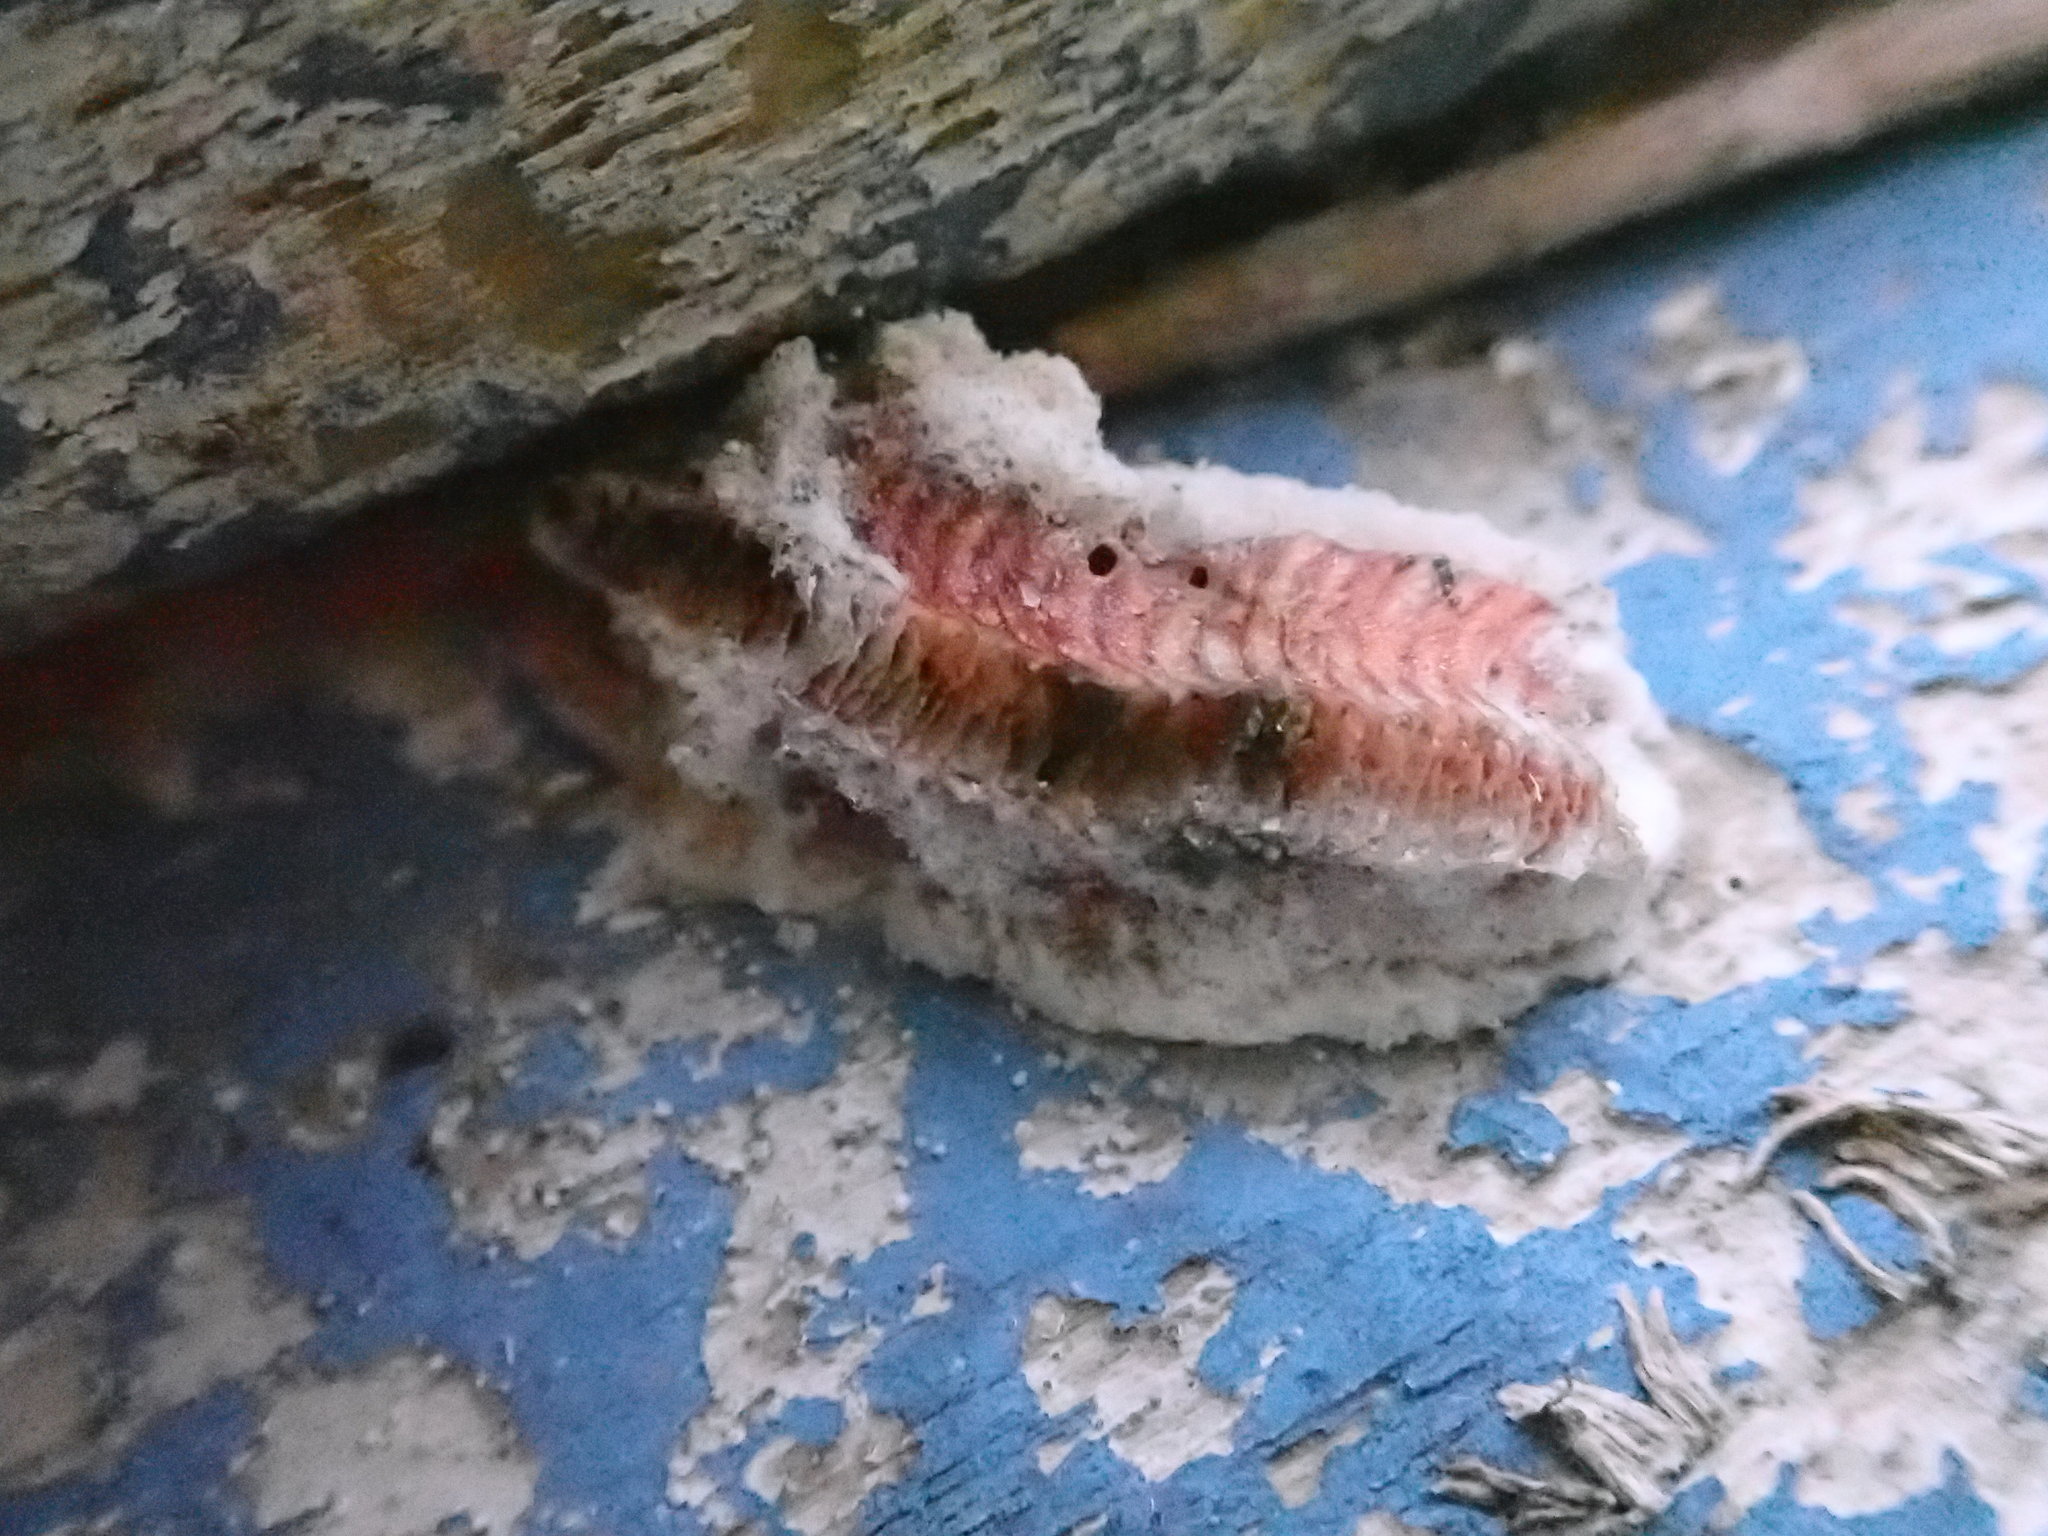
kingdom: Animalia
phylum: Arthropoda
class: Insecta
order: Mantodea
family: Miomantidae
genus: Miomantis
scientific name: Miomantis caffra
